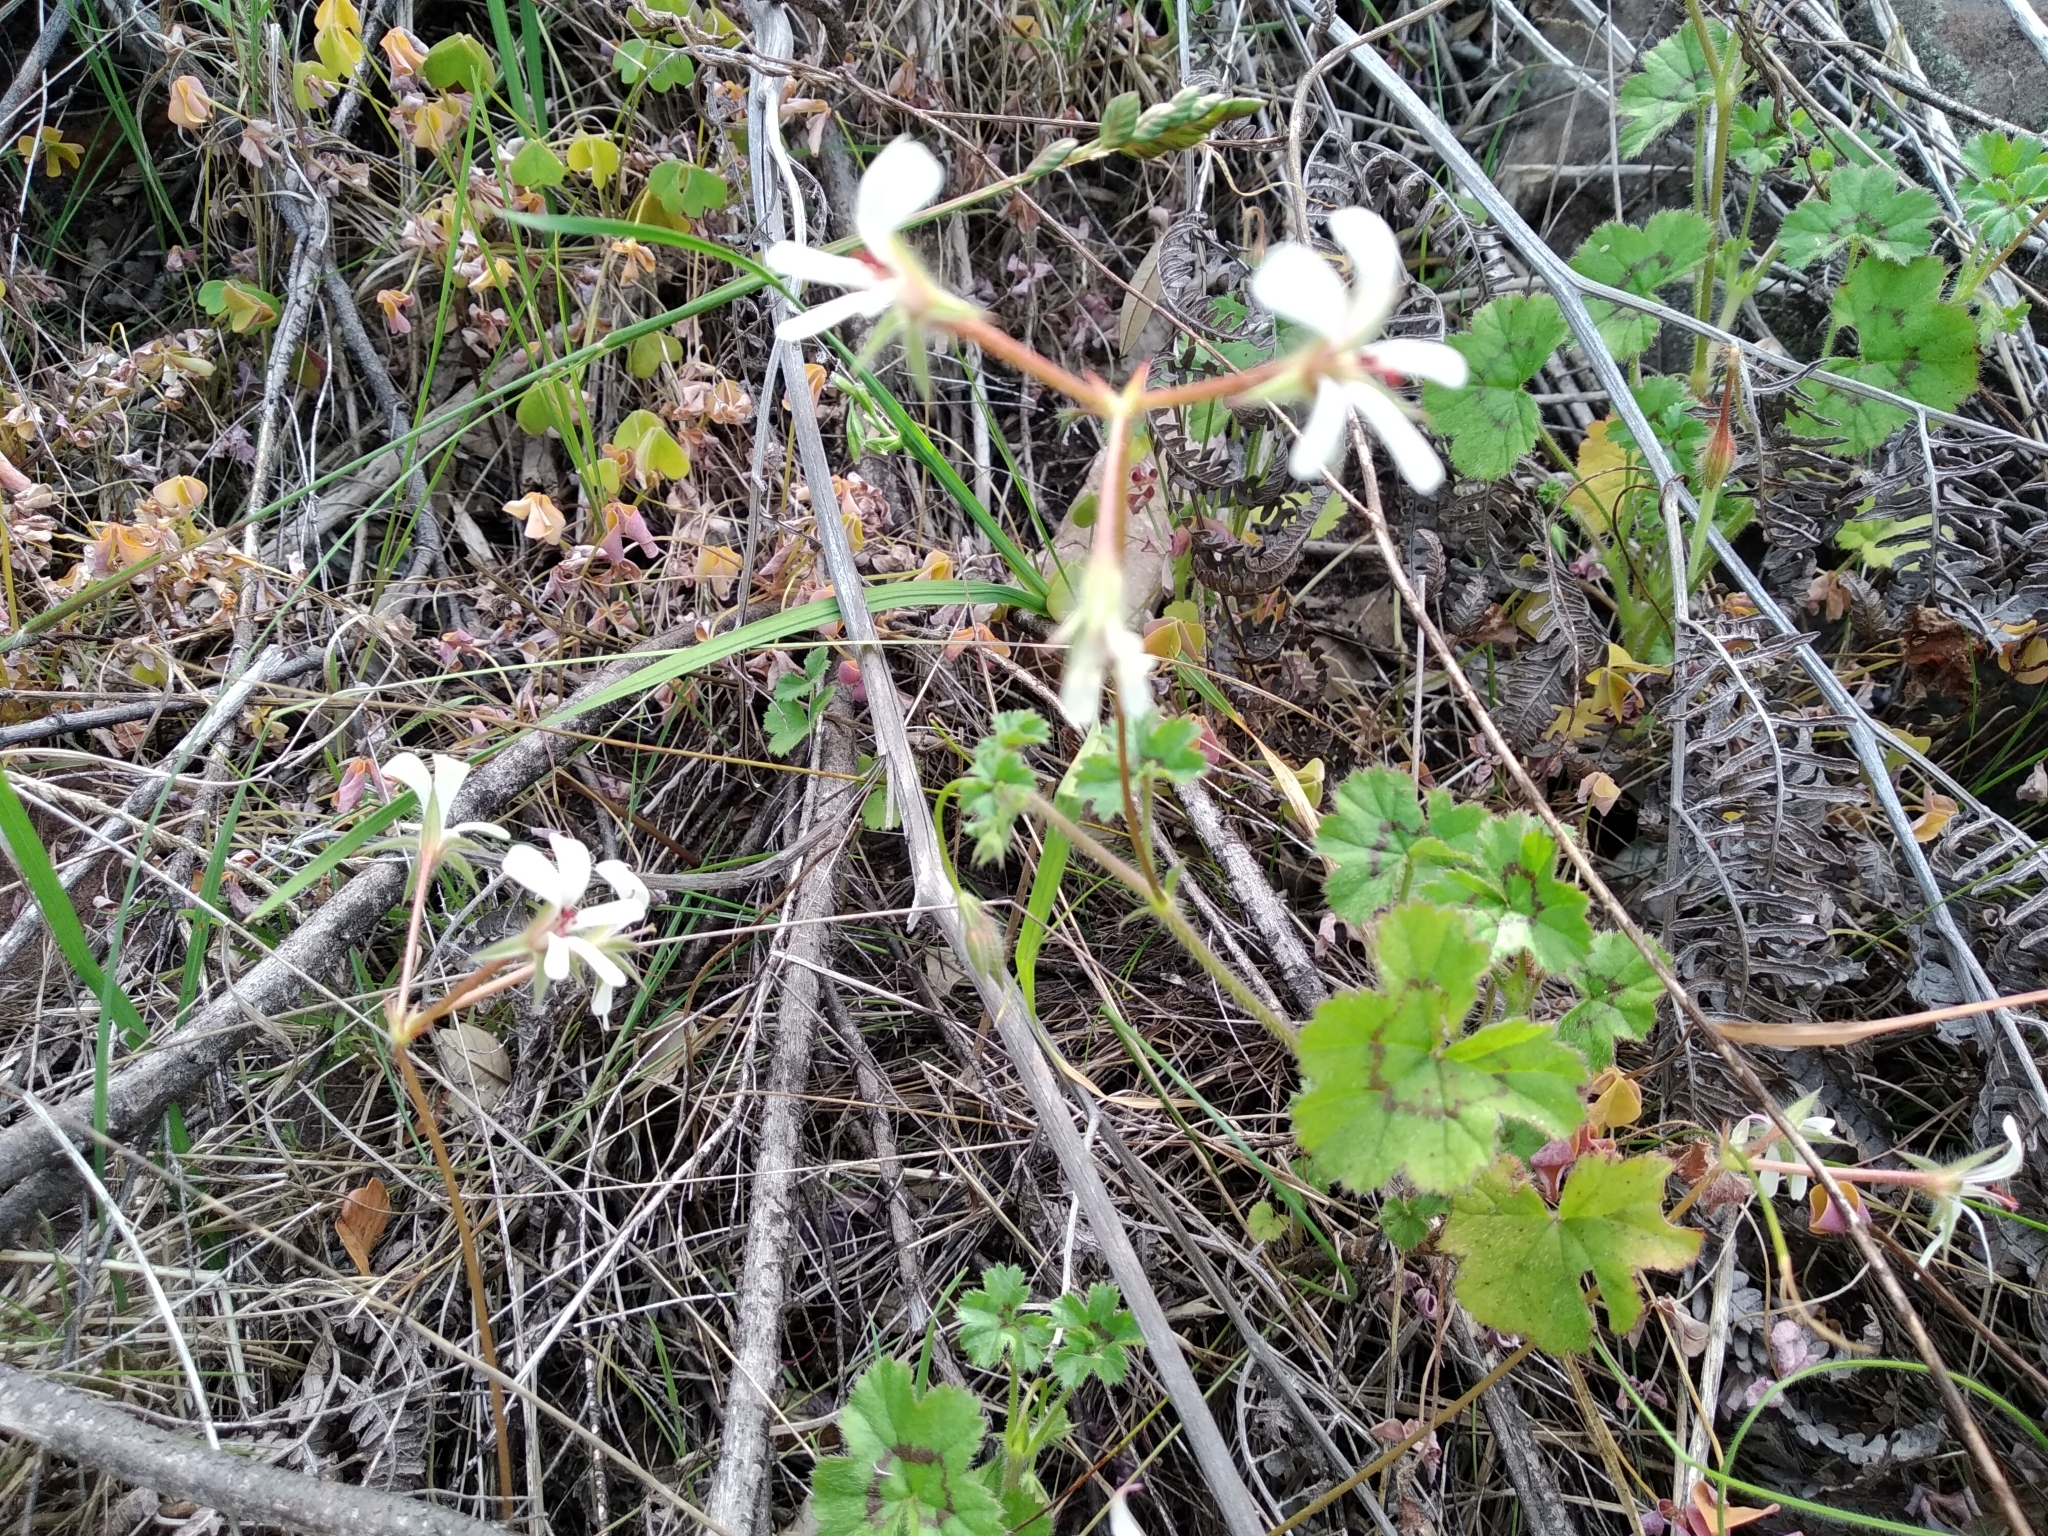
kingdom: Plantae
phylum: Tracheophyta
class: Magnoliopsida
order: Geraniales
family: Geraniaceae
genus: Pelargonium
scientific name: Pelargonium elongatum
